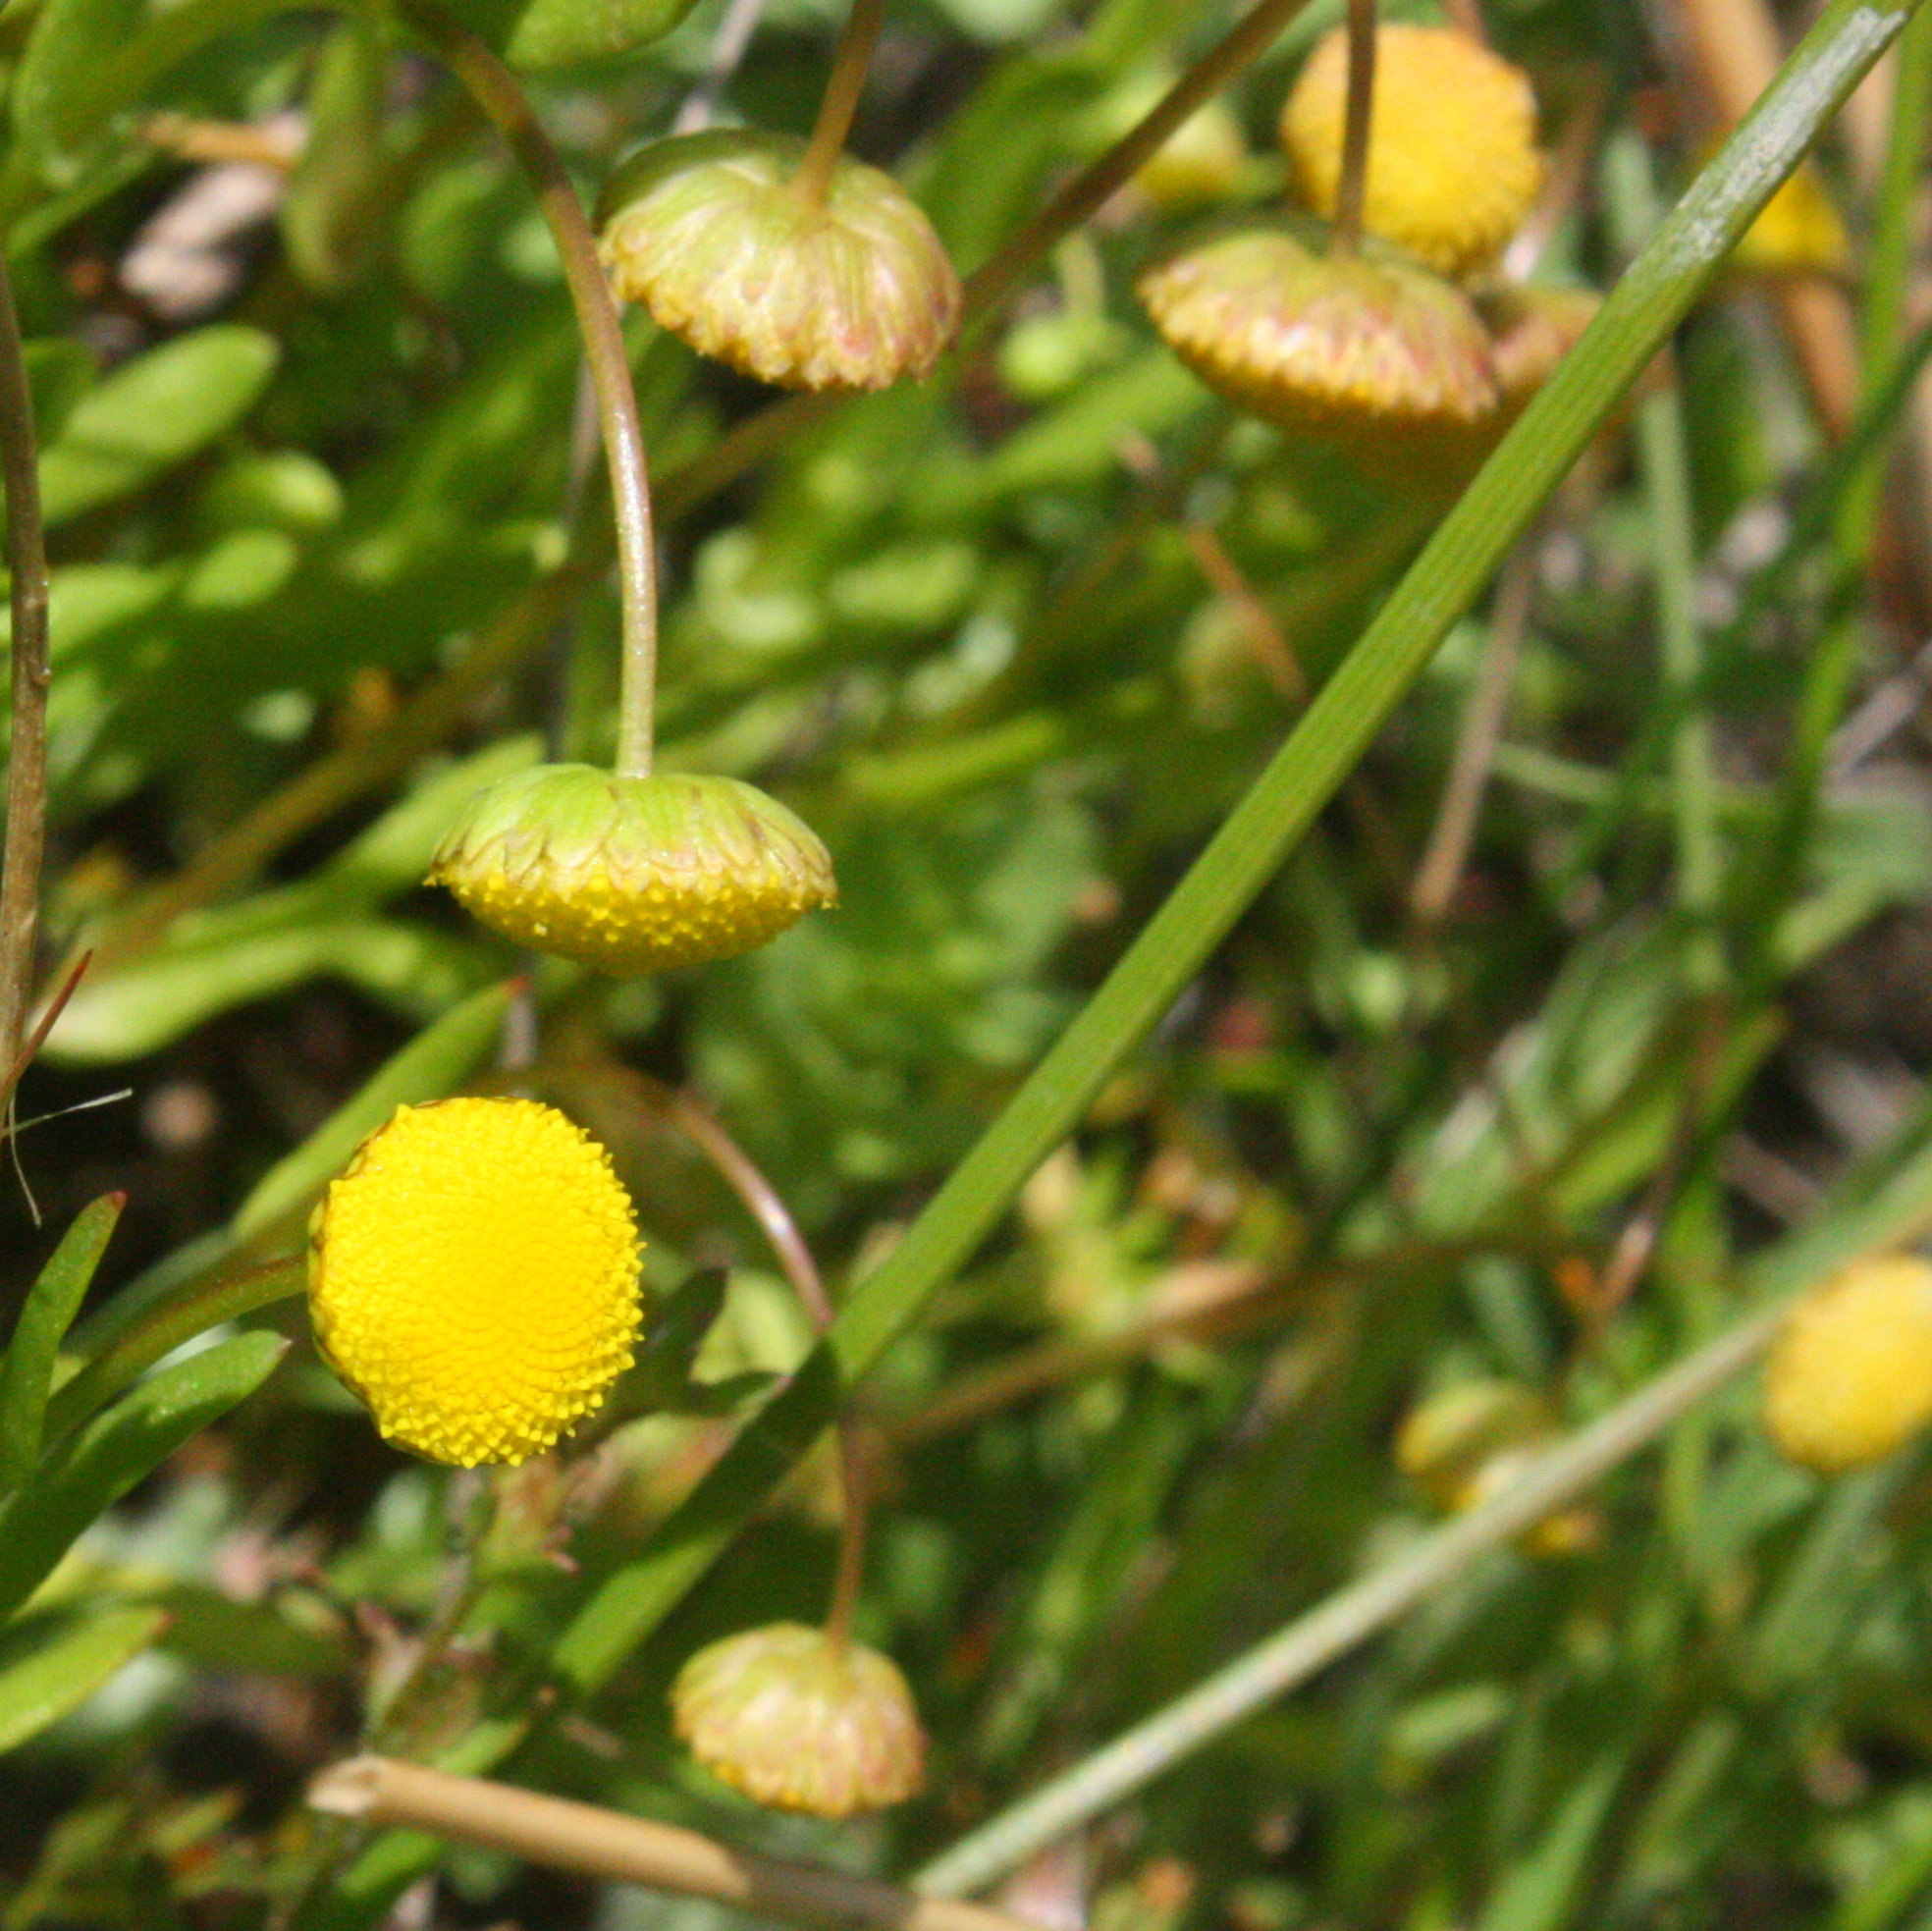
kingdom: Plantae
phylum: Tracheophyta
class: Magnoliopsida
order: Asterales
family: Asteraceae
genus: Cotula
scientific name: Cotula coronopifolia
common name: Buttonweed
